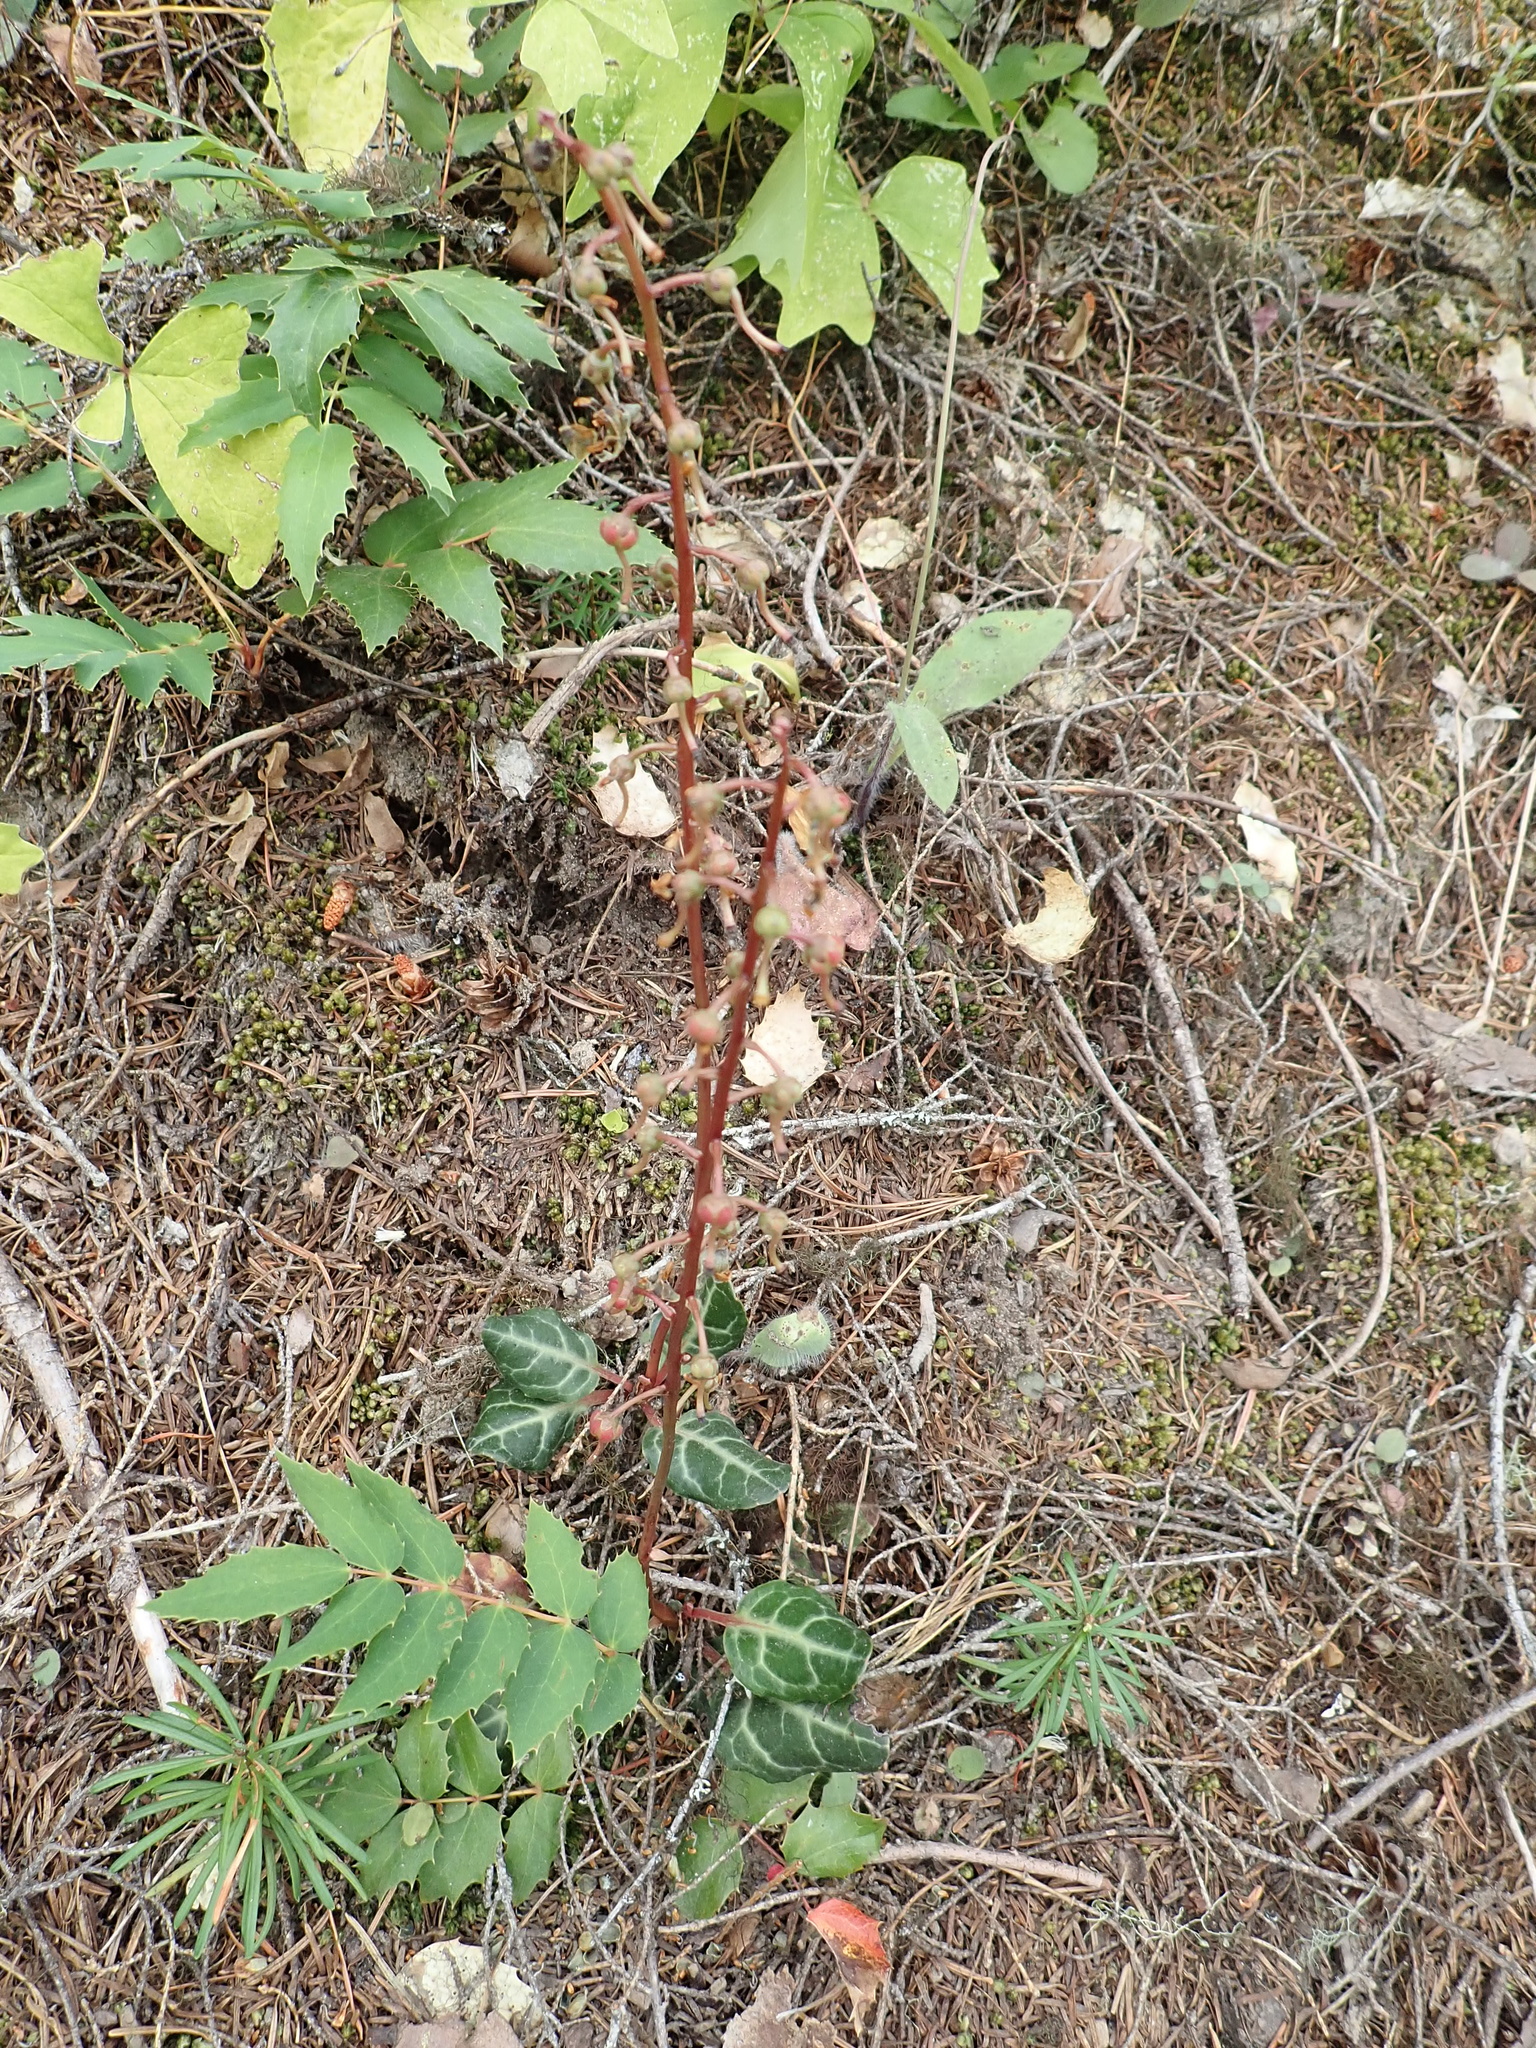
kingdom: Plantae
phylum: Tracheophyta
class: Magnoliopsida
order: Ericales
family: Ericaceae
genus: Pyrola
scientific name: Pyrola picta
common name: White-vein wintergreen
